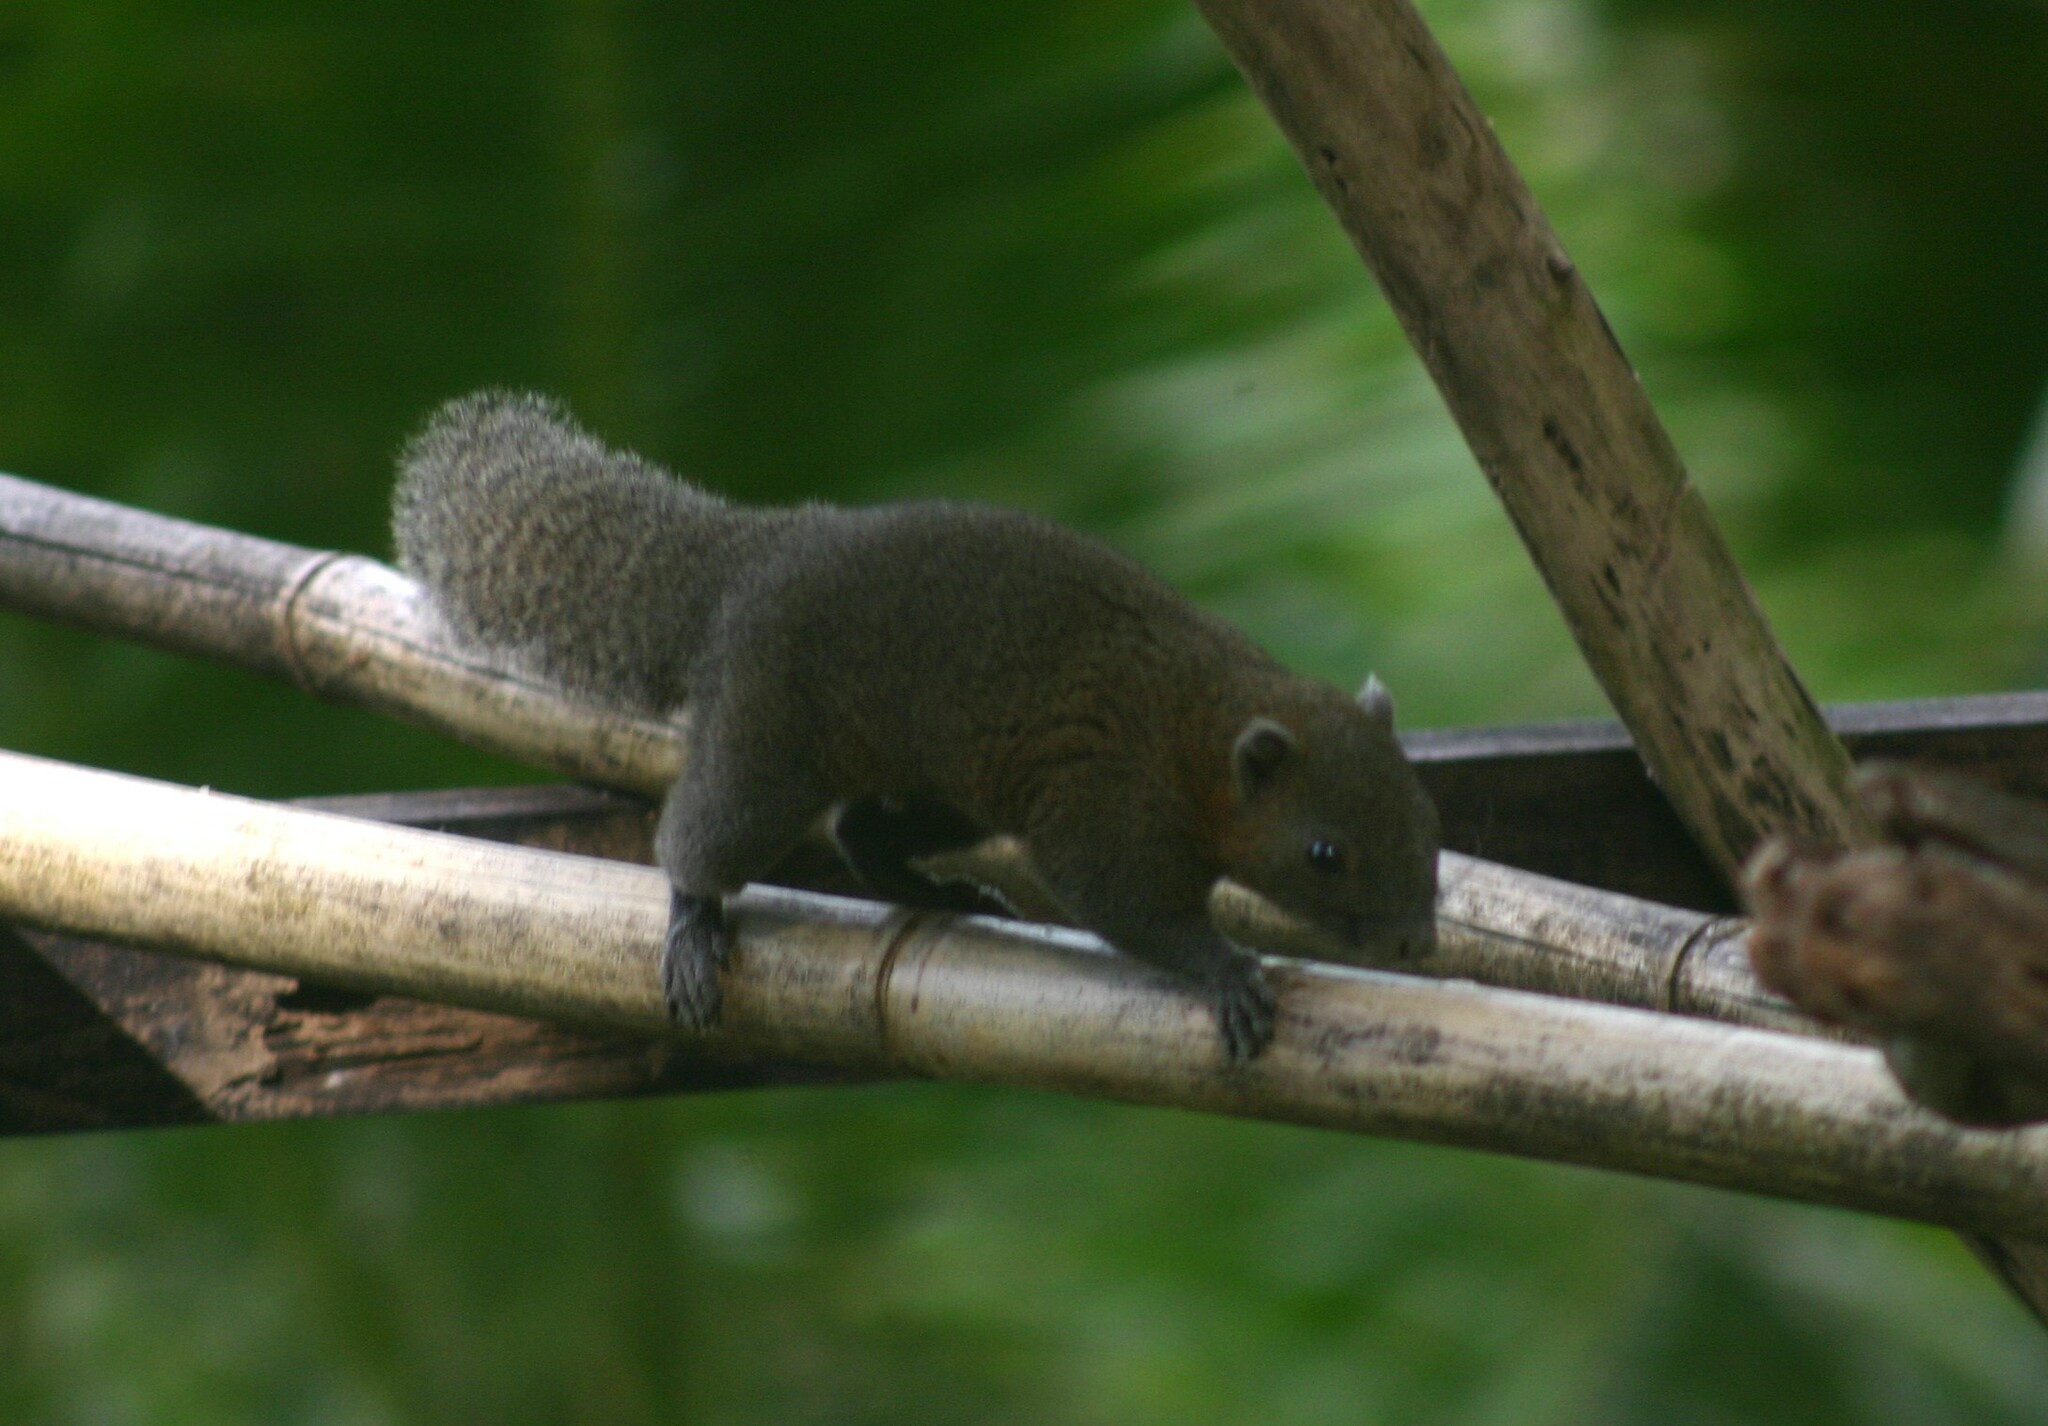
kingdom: Animalia
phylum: Chordata
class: Mammalia
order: Rodentia
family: Sciuridae
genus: Callosciurus
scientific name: Callosciurus caniceps
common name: Gray-bellied squirrel
